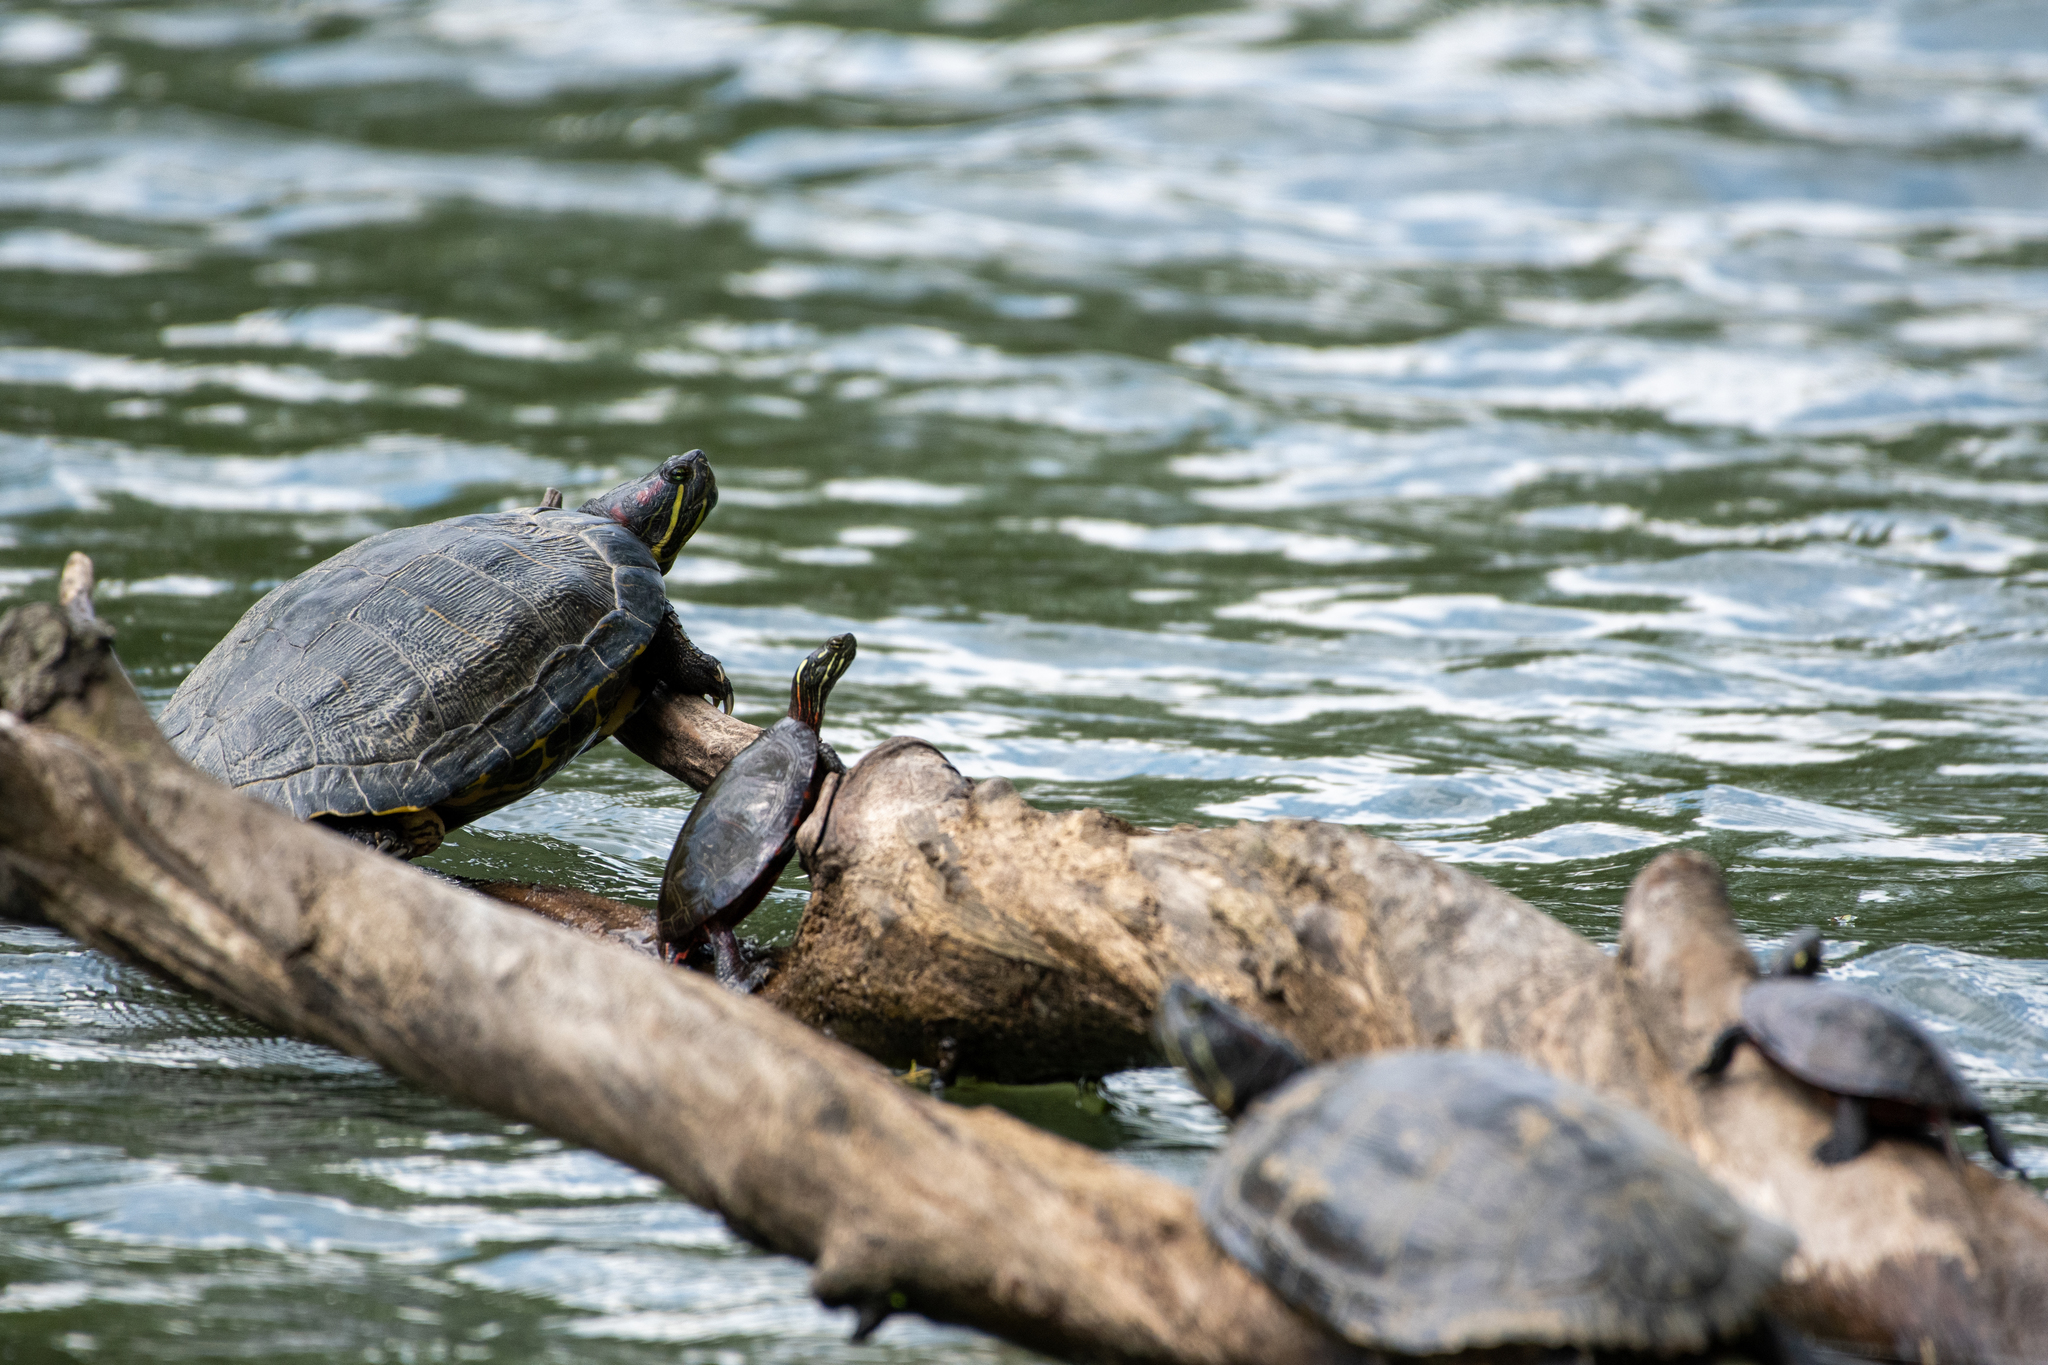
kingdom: Animalia
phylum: Chordata
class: Testudines
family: Emydidae
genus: Chrysemys
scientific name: Chrysemys picta
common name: Painted turtle
